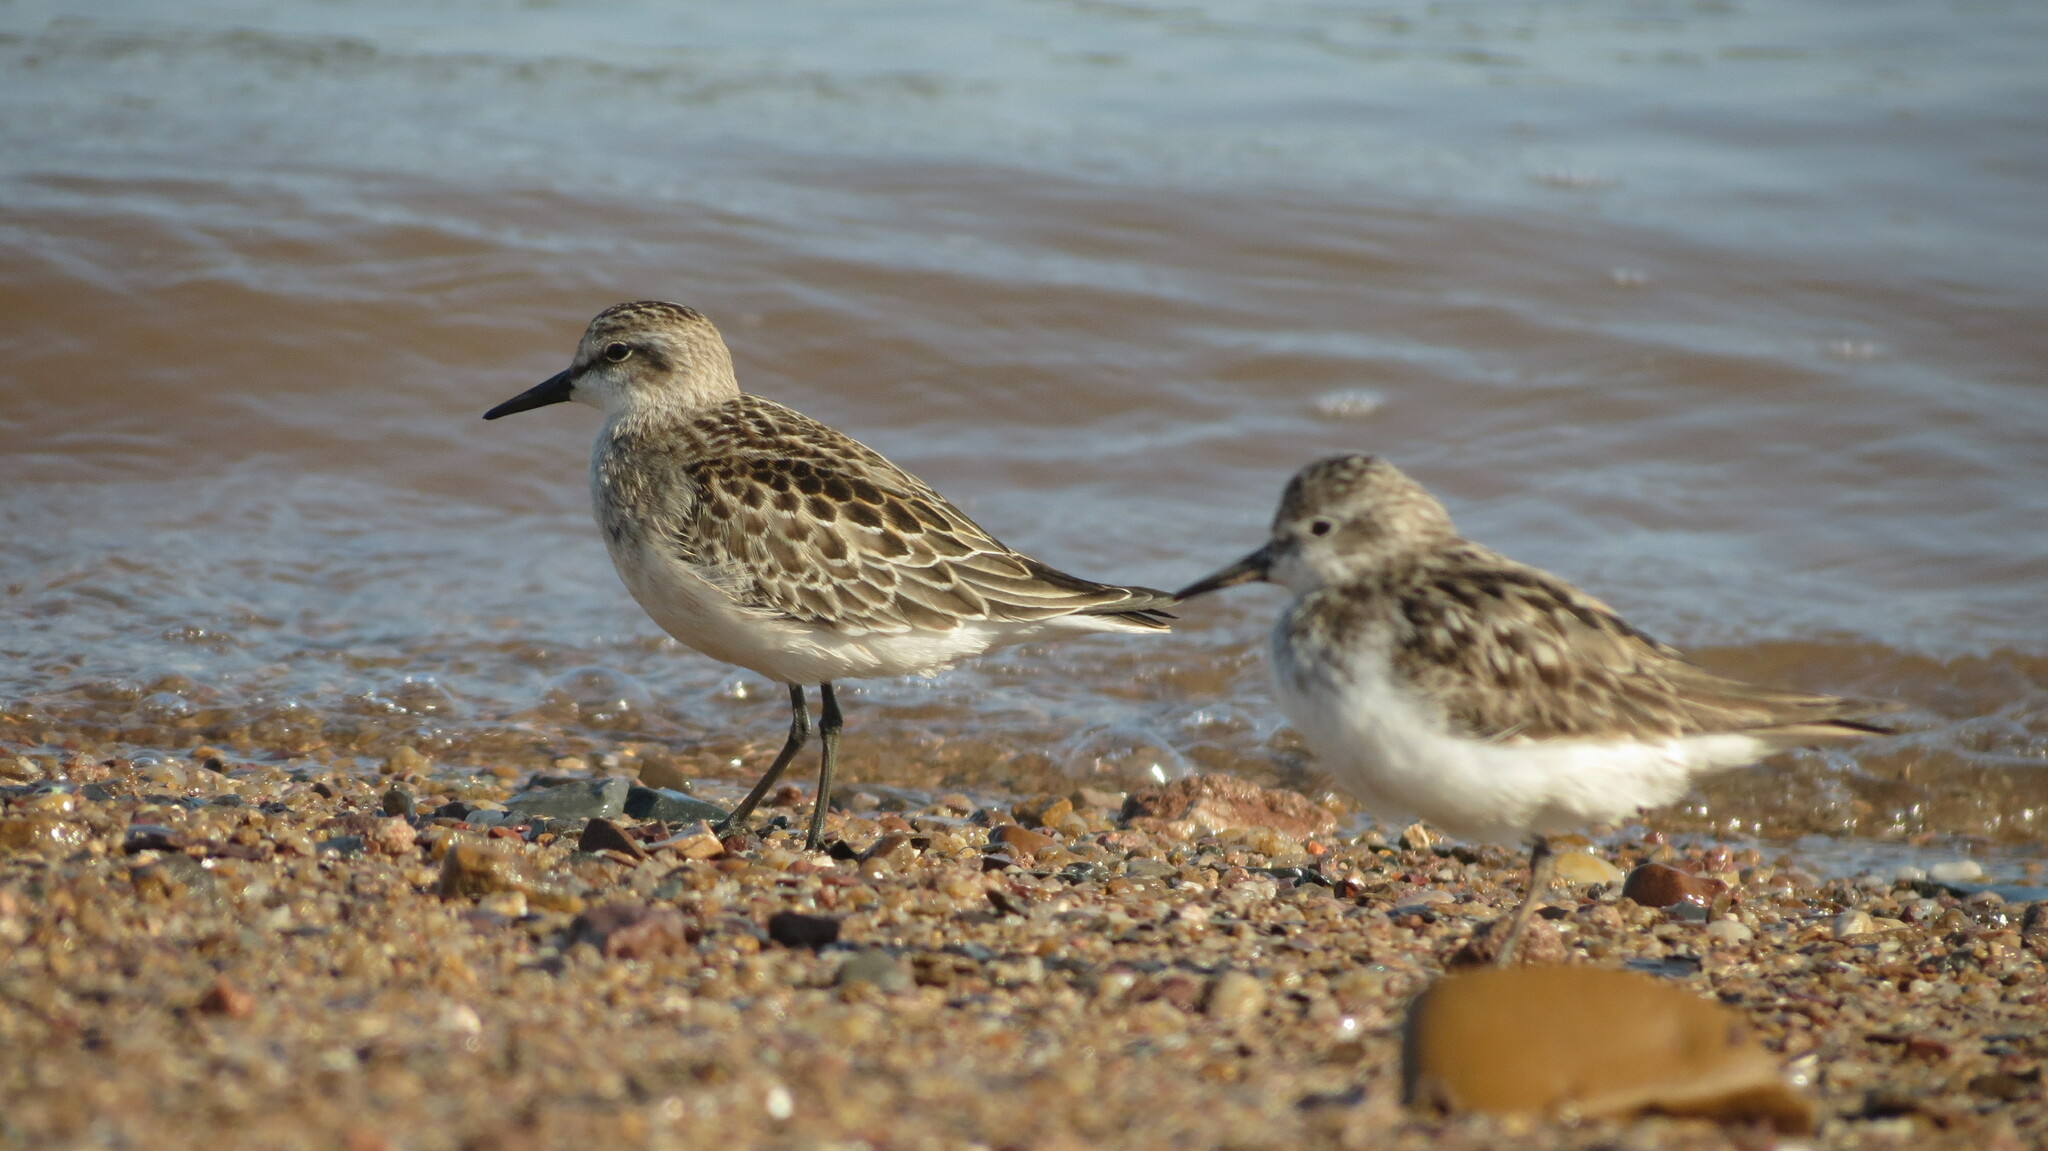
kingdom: Animalia
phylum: Chordata
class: Aves
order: Charadriiformes
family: Scolopacidae
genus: Calidris
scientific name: Calidris pusilla
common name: Semipalmated sandpiper
